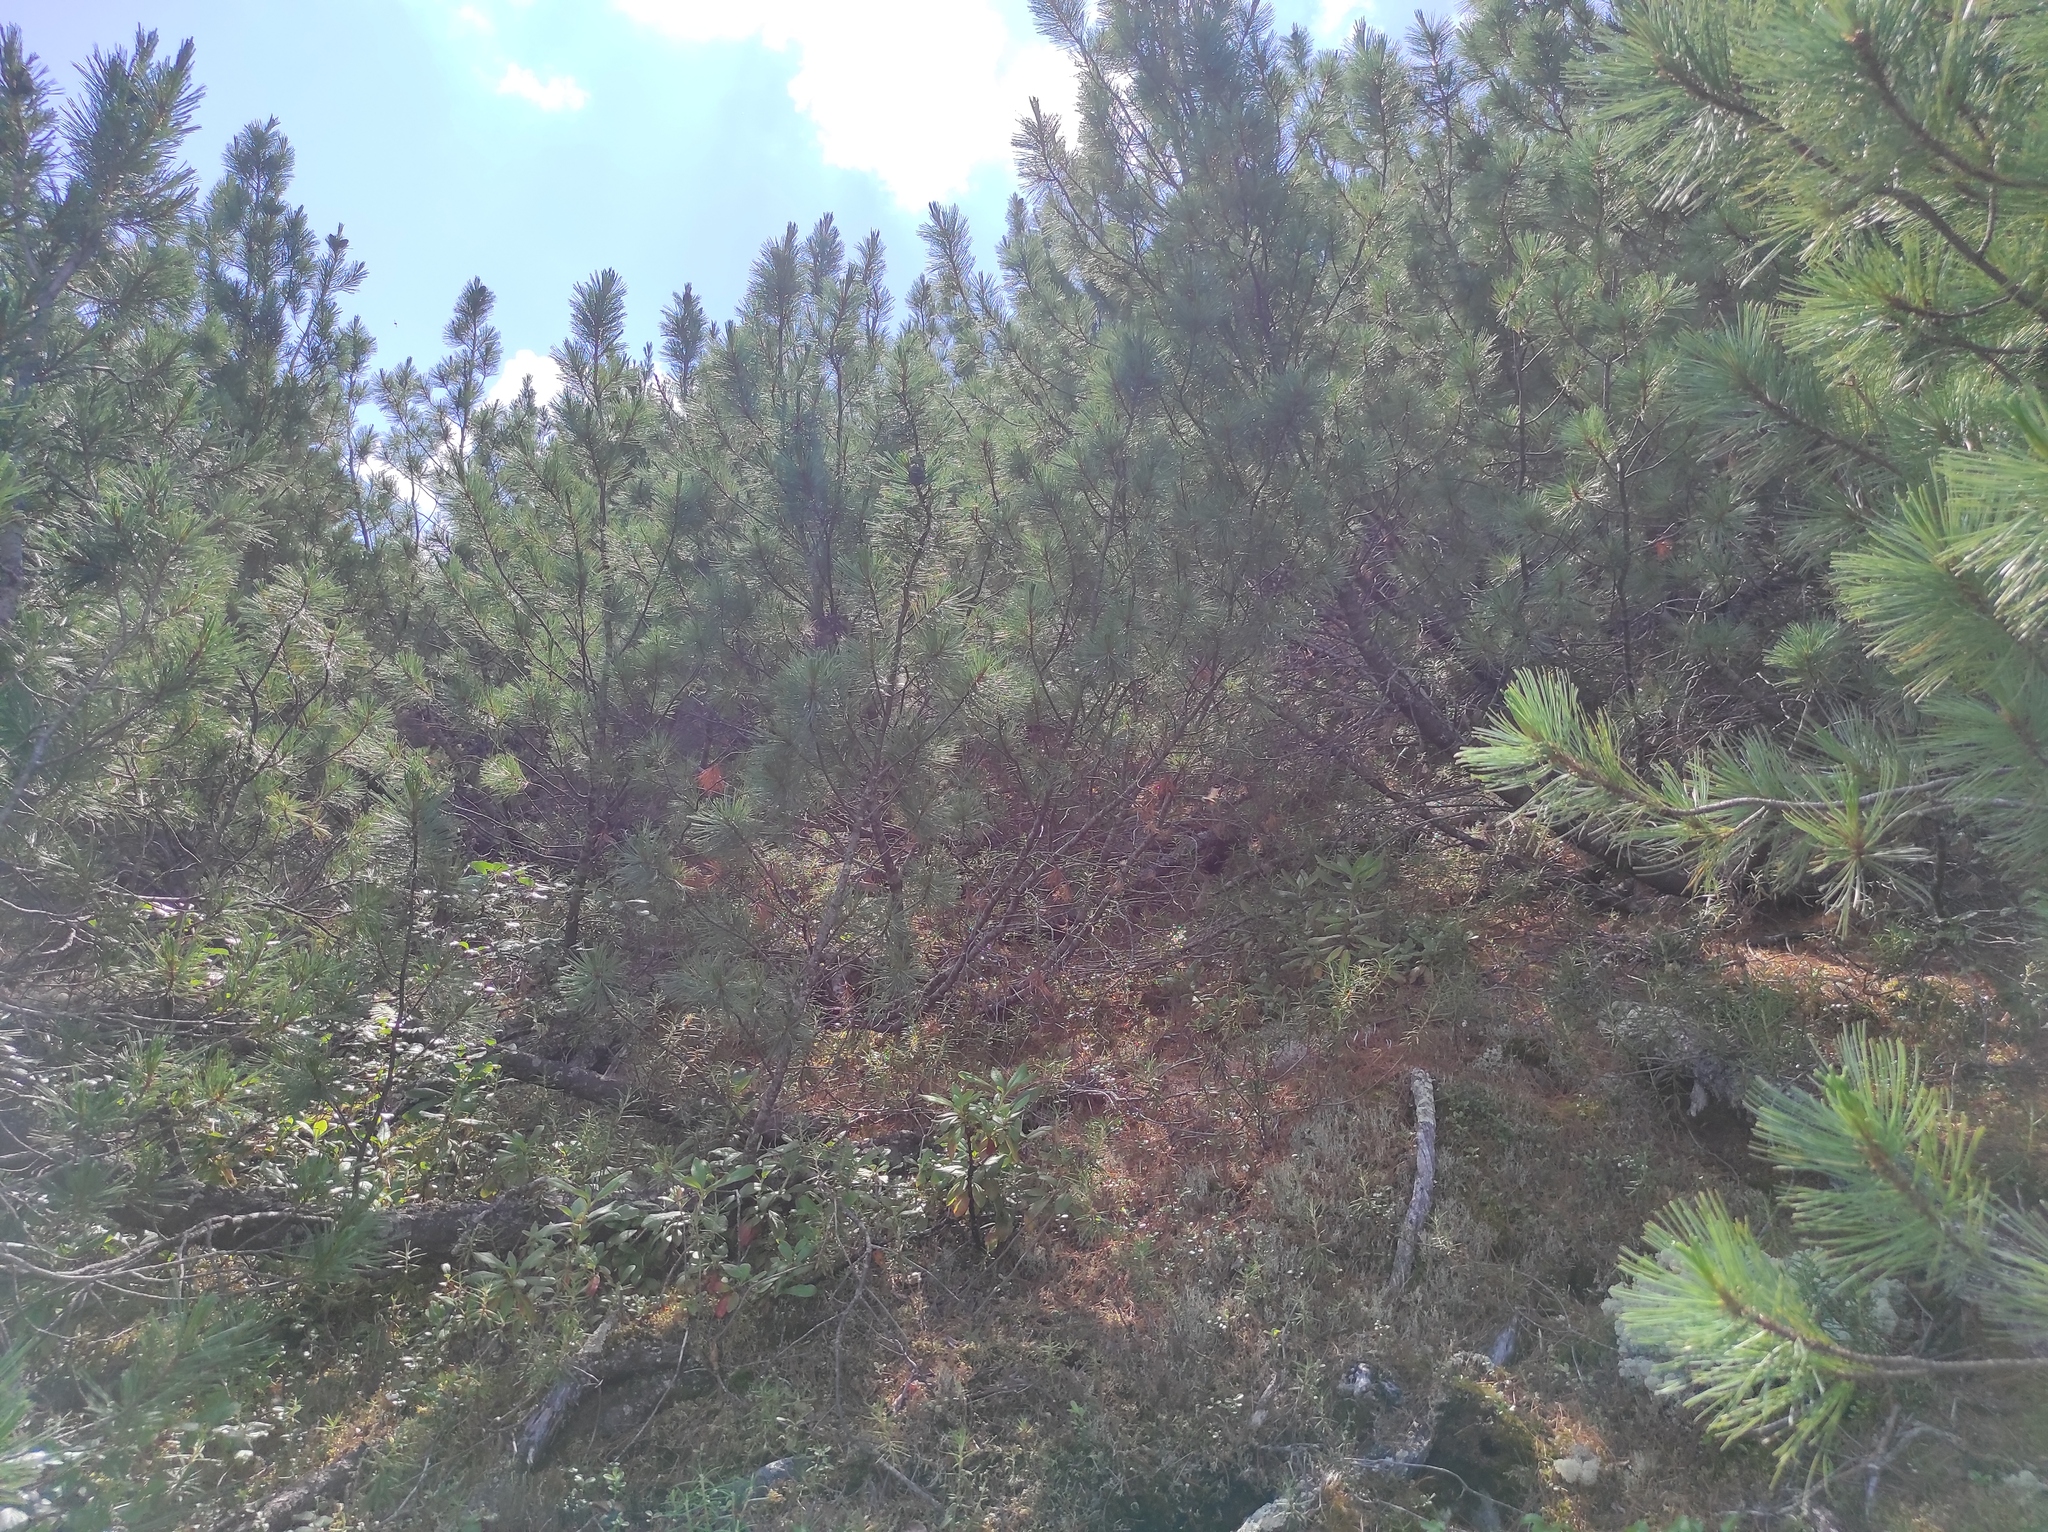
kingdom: Plantae
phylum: Tracheophyta
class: Pinopsida
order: Pinales
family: Pinaceae
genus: Pinus
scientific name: Pinus pumila
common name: Dwarf siberian pine
